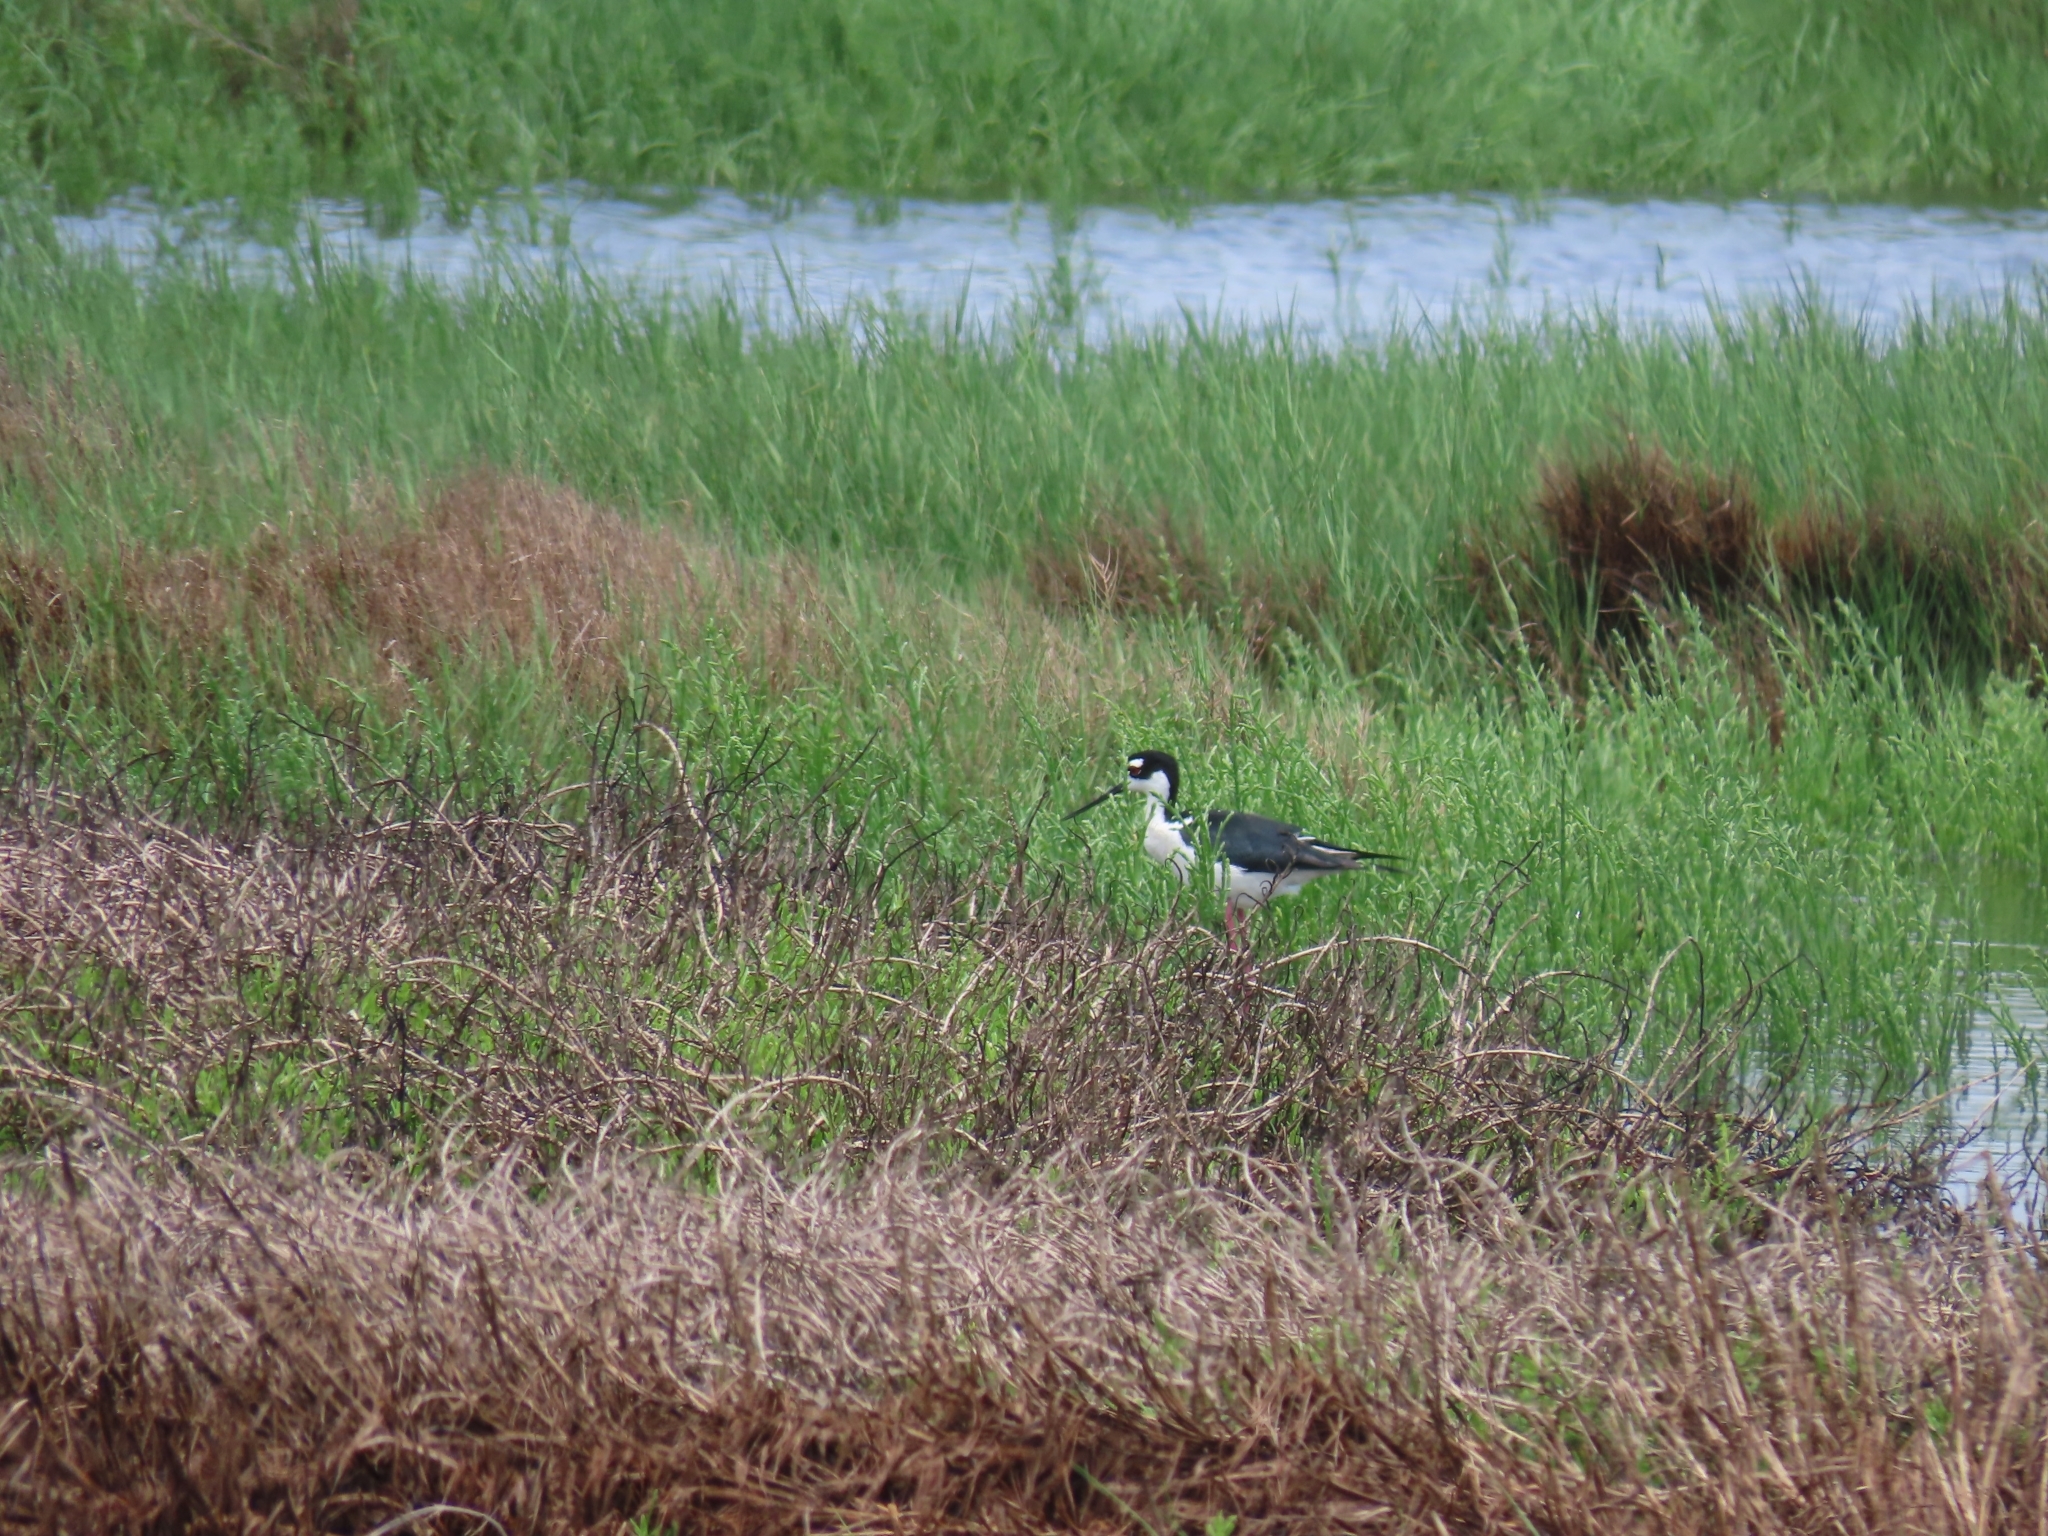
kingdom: Animalia
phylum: Chordata
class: Aves
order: Charadriiformes
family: Recurvirostridae
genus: Himantopus
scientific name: Himantopus mexicanus
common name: Black-necked stilt
